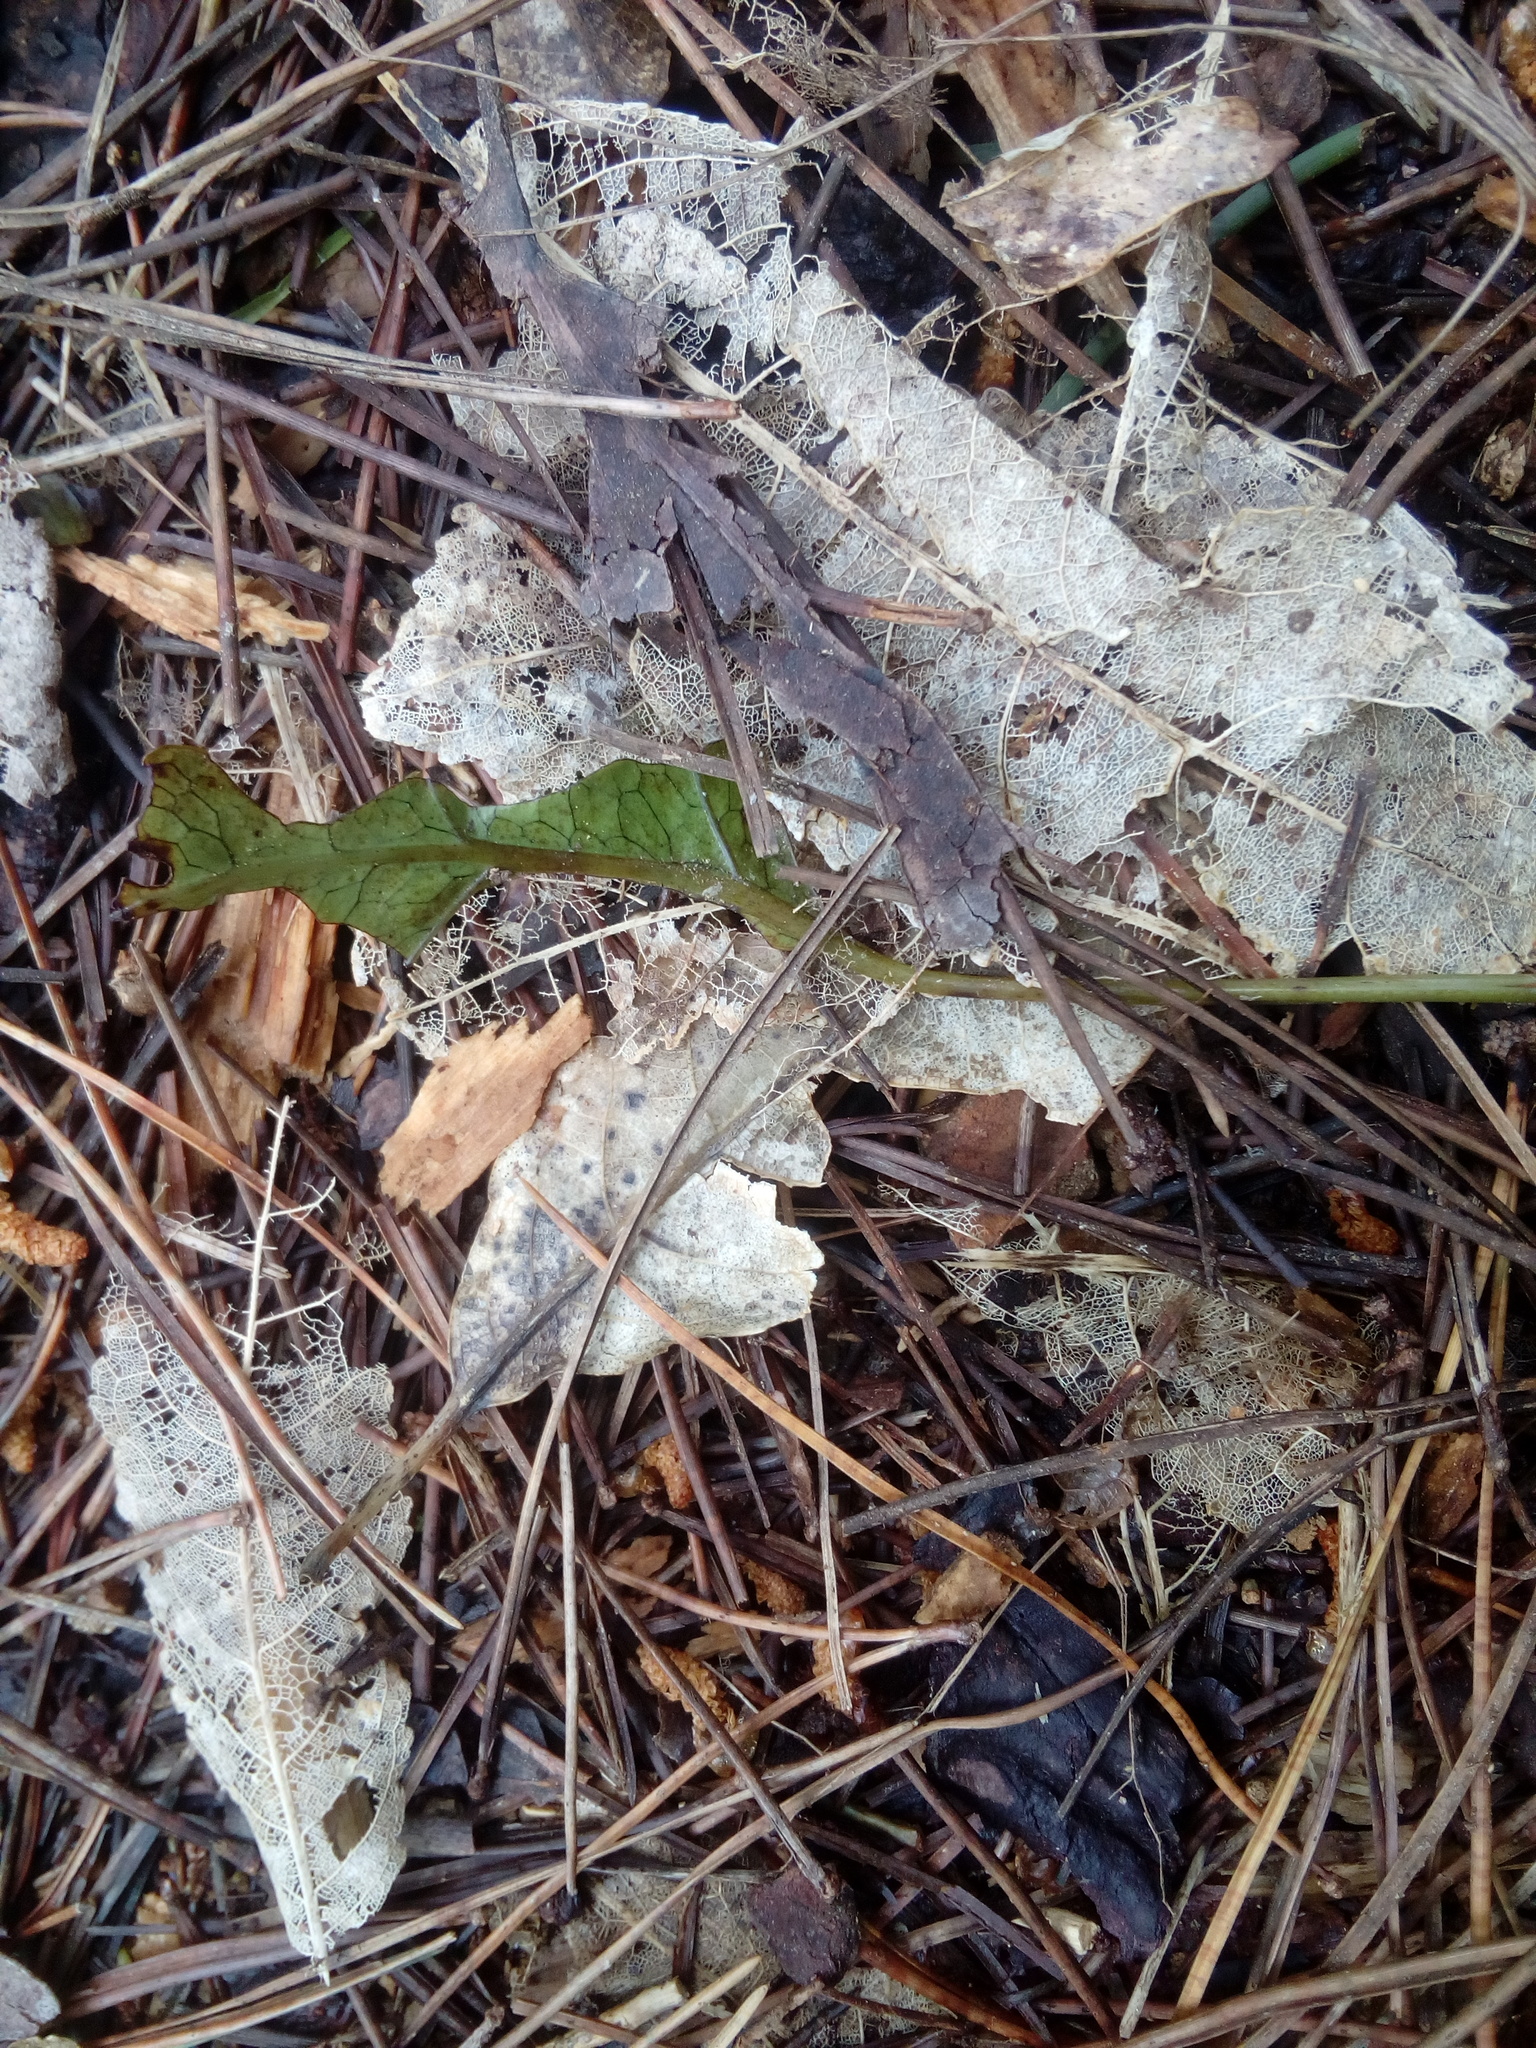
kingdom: Plantae
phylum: Tracheophyta
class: Polypodiopsida
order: Polypodiales
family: Polypodiaceae
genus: Lecanopteris
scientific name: Lecanopteris pustulata
